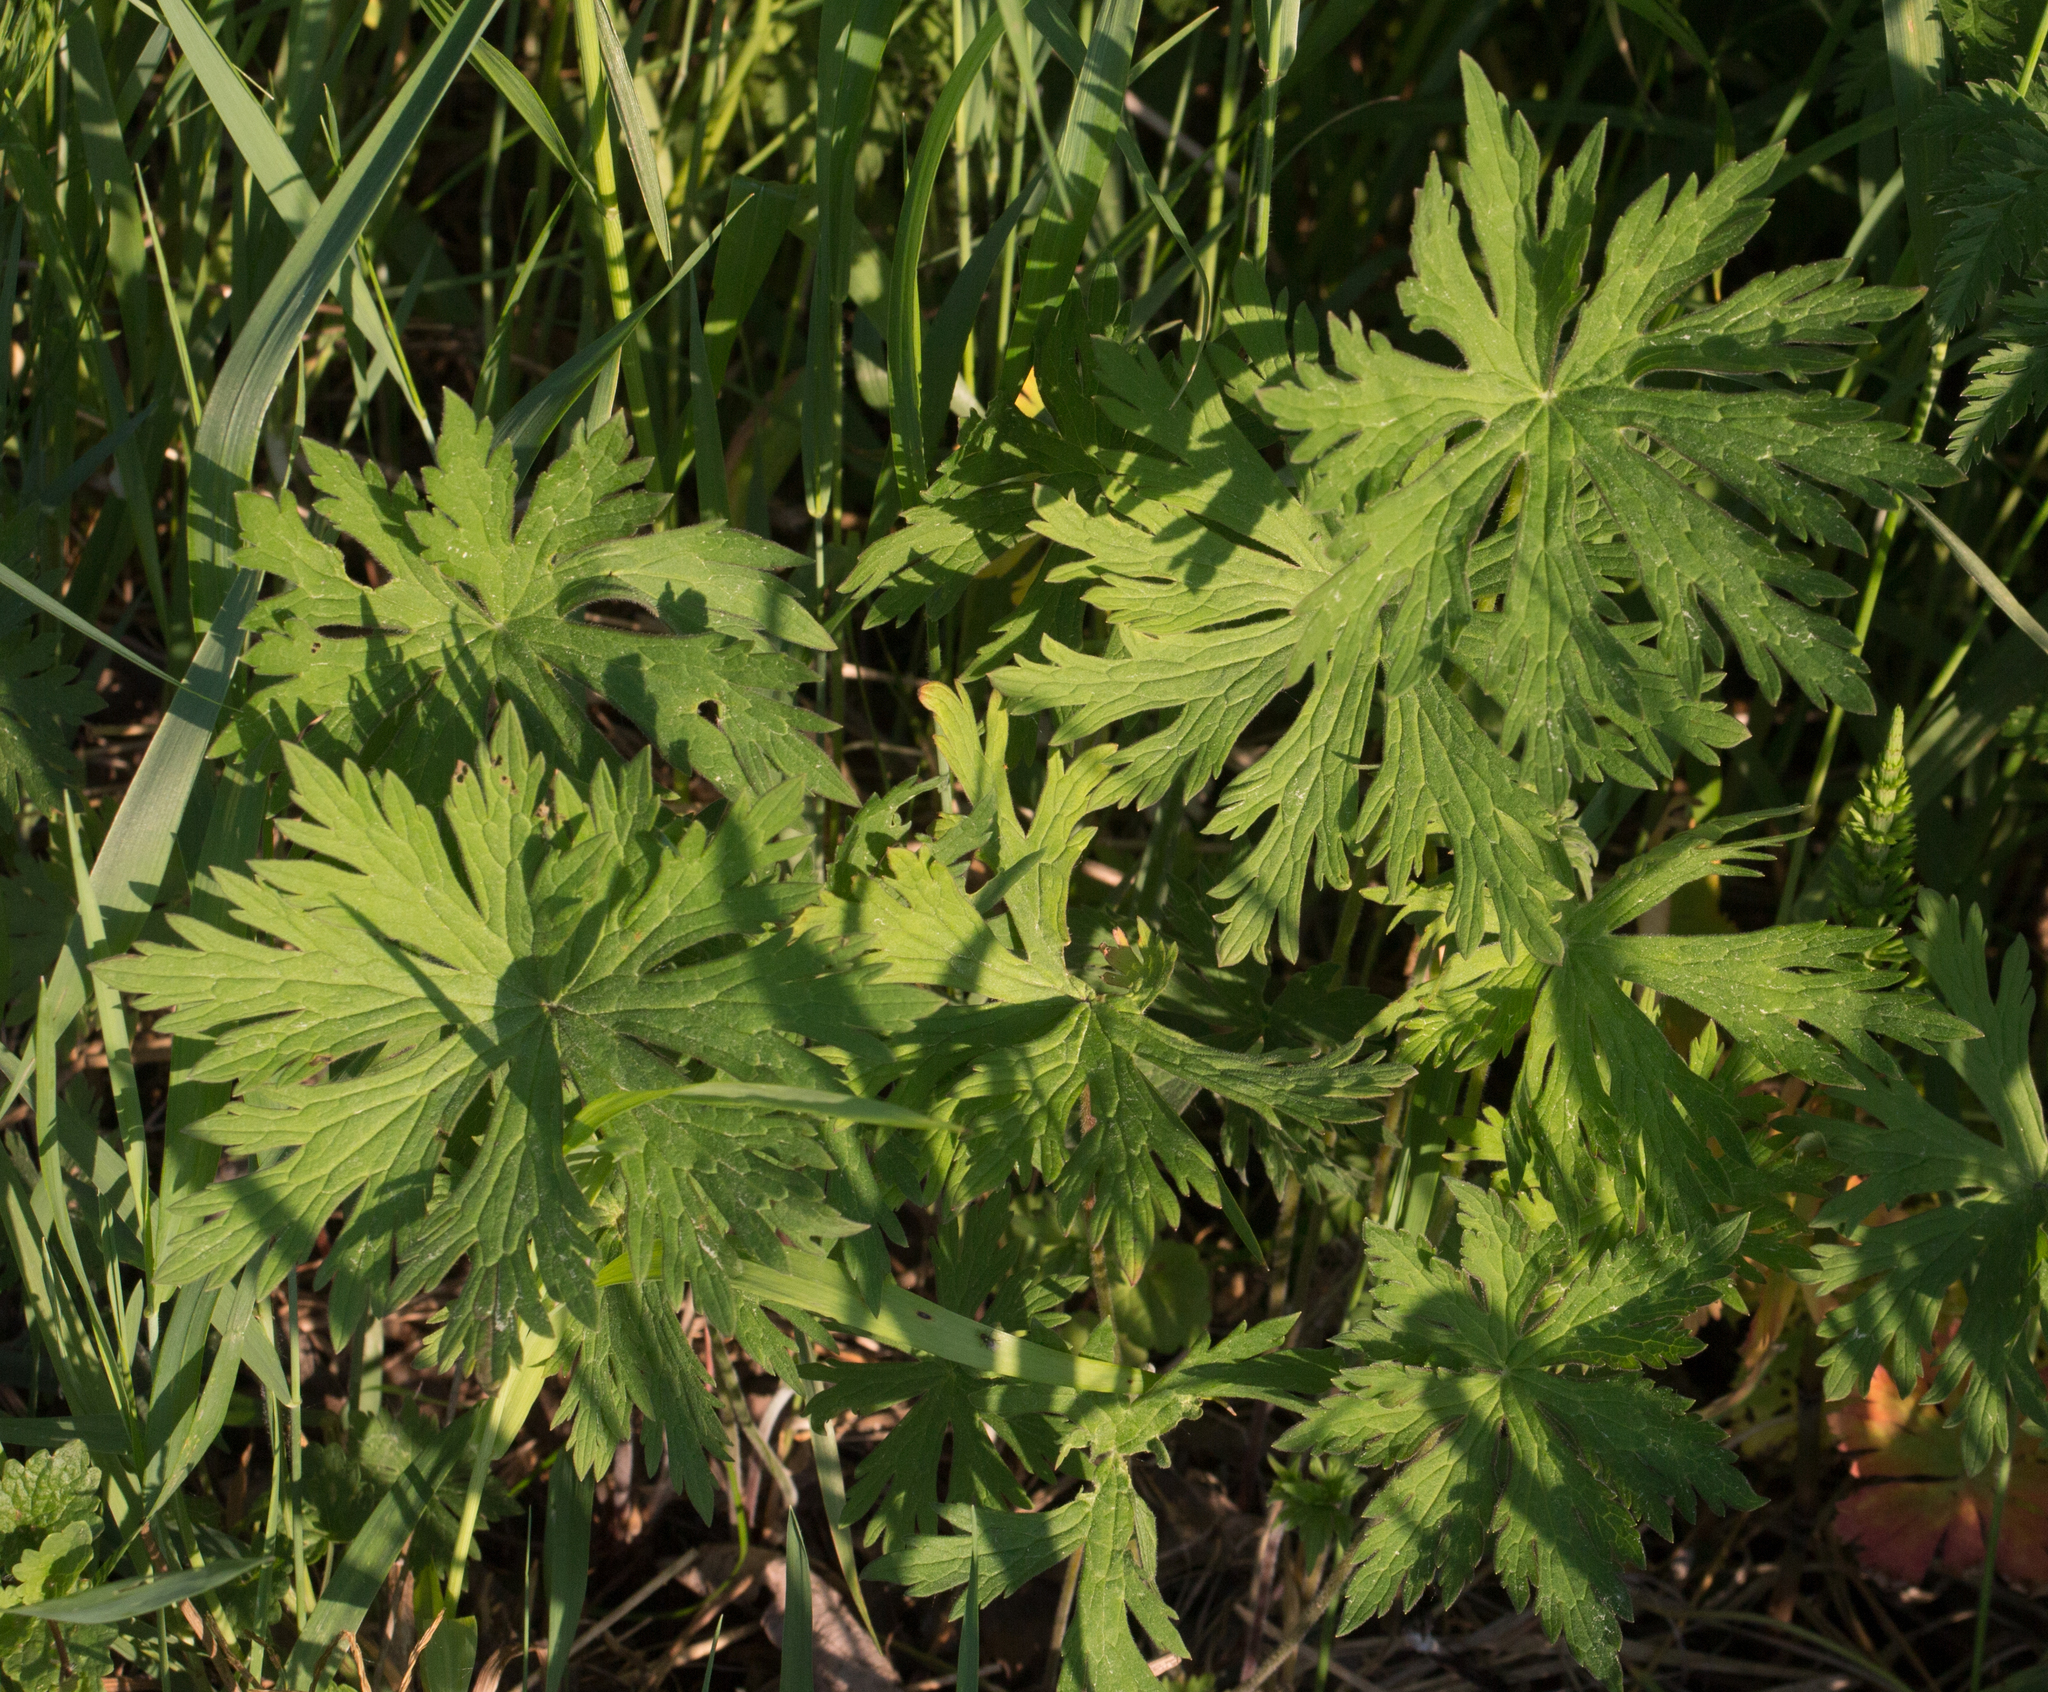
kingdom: Plantae
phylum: Tracheophyta
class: Magnoliopsida
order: Geraniales
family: Geraniaceae
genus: Geranium
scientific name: Geranium pratense
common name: Meadow crane's-bill
